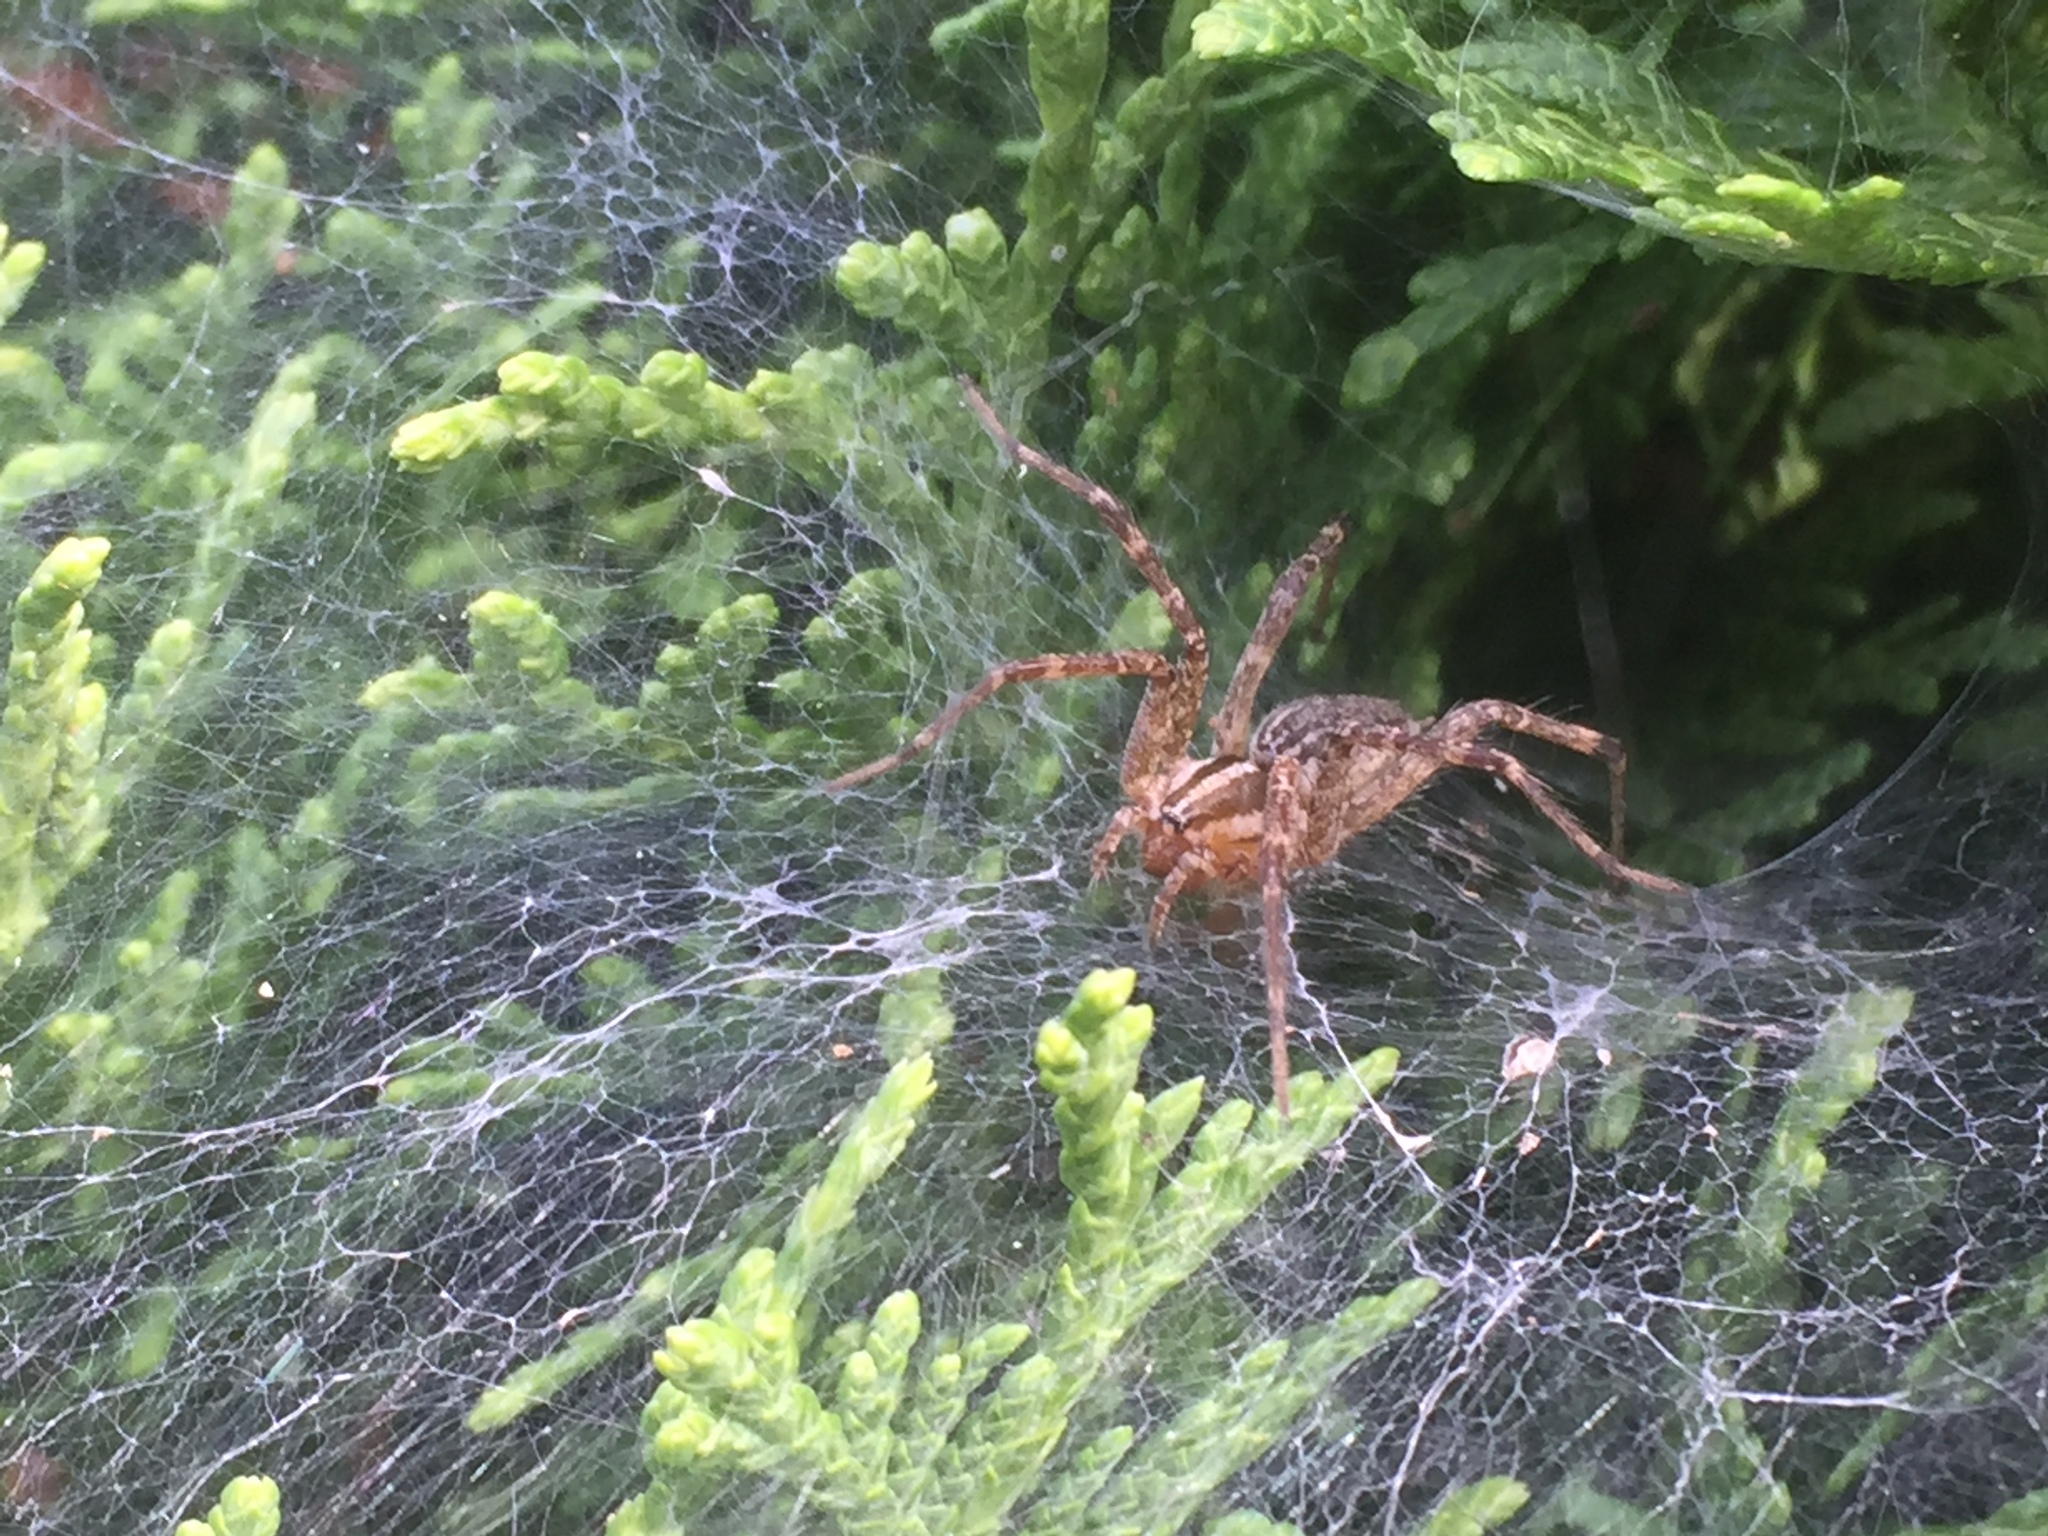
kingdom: Animalia
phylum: Arthropoda
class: Arachnida
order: Araneae
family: Agelenidae
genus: Agelenopsis
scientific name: Agelenopsis
